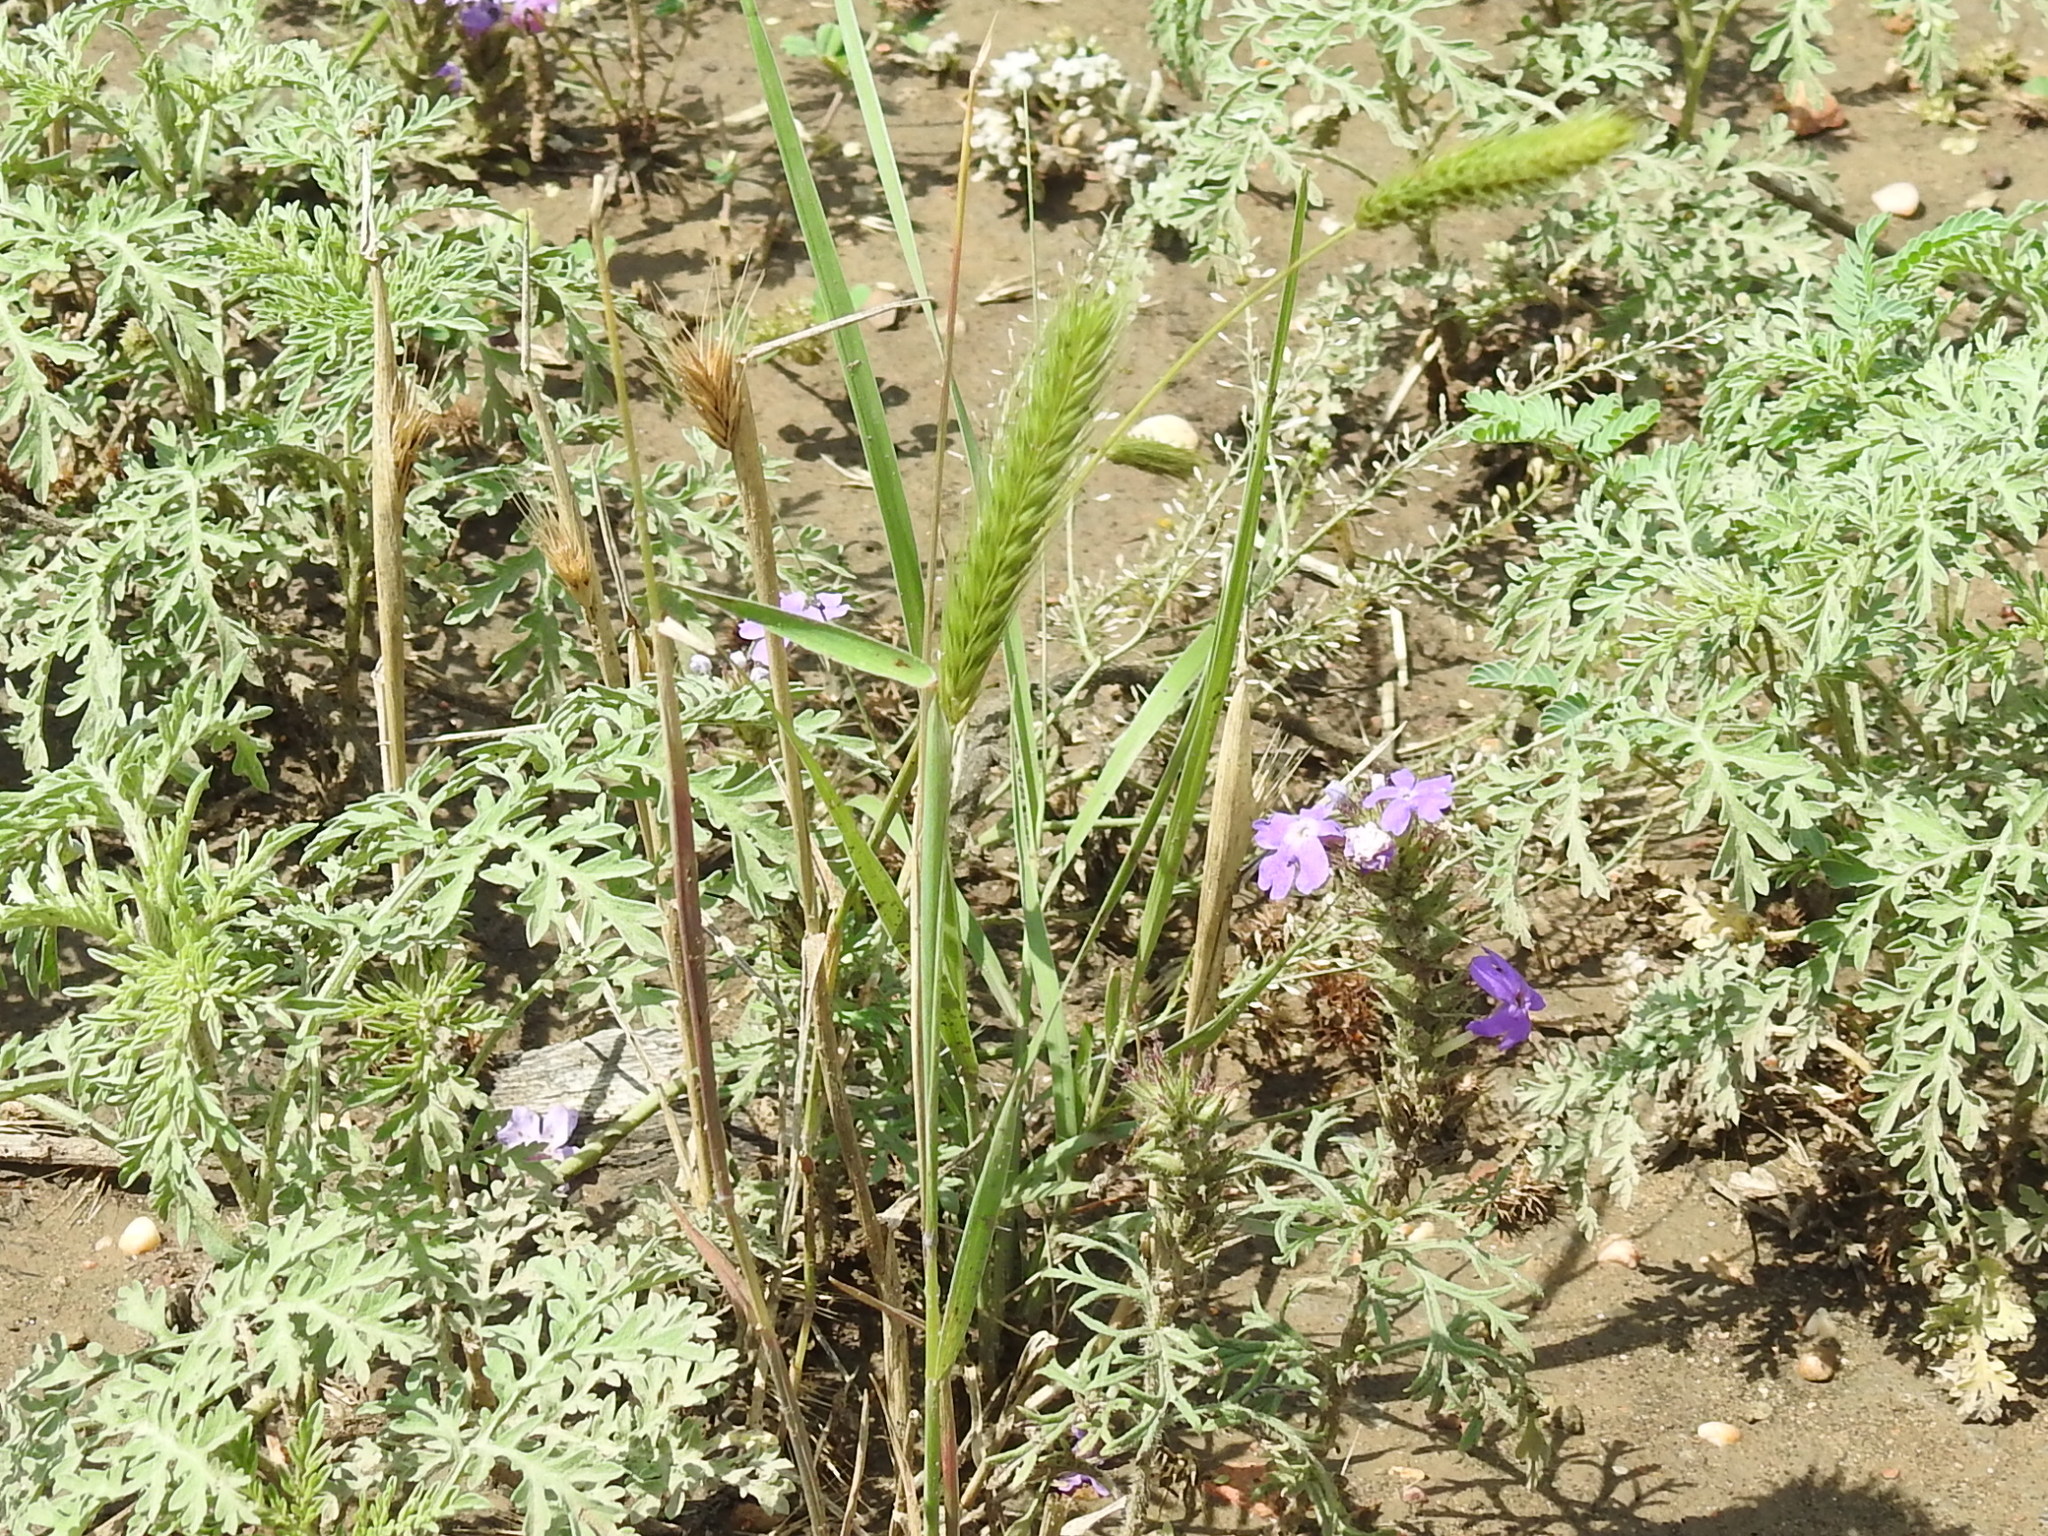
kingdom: Plantae
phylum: Tracheophyta
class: Liliopsida
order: Poales
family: Poaceae
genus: Hordeum
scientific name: Hordeum pusillum
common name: Little barley
